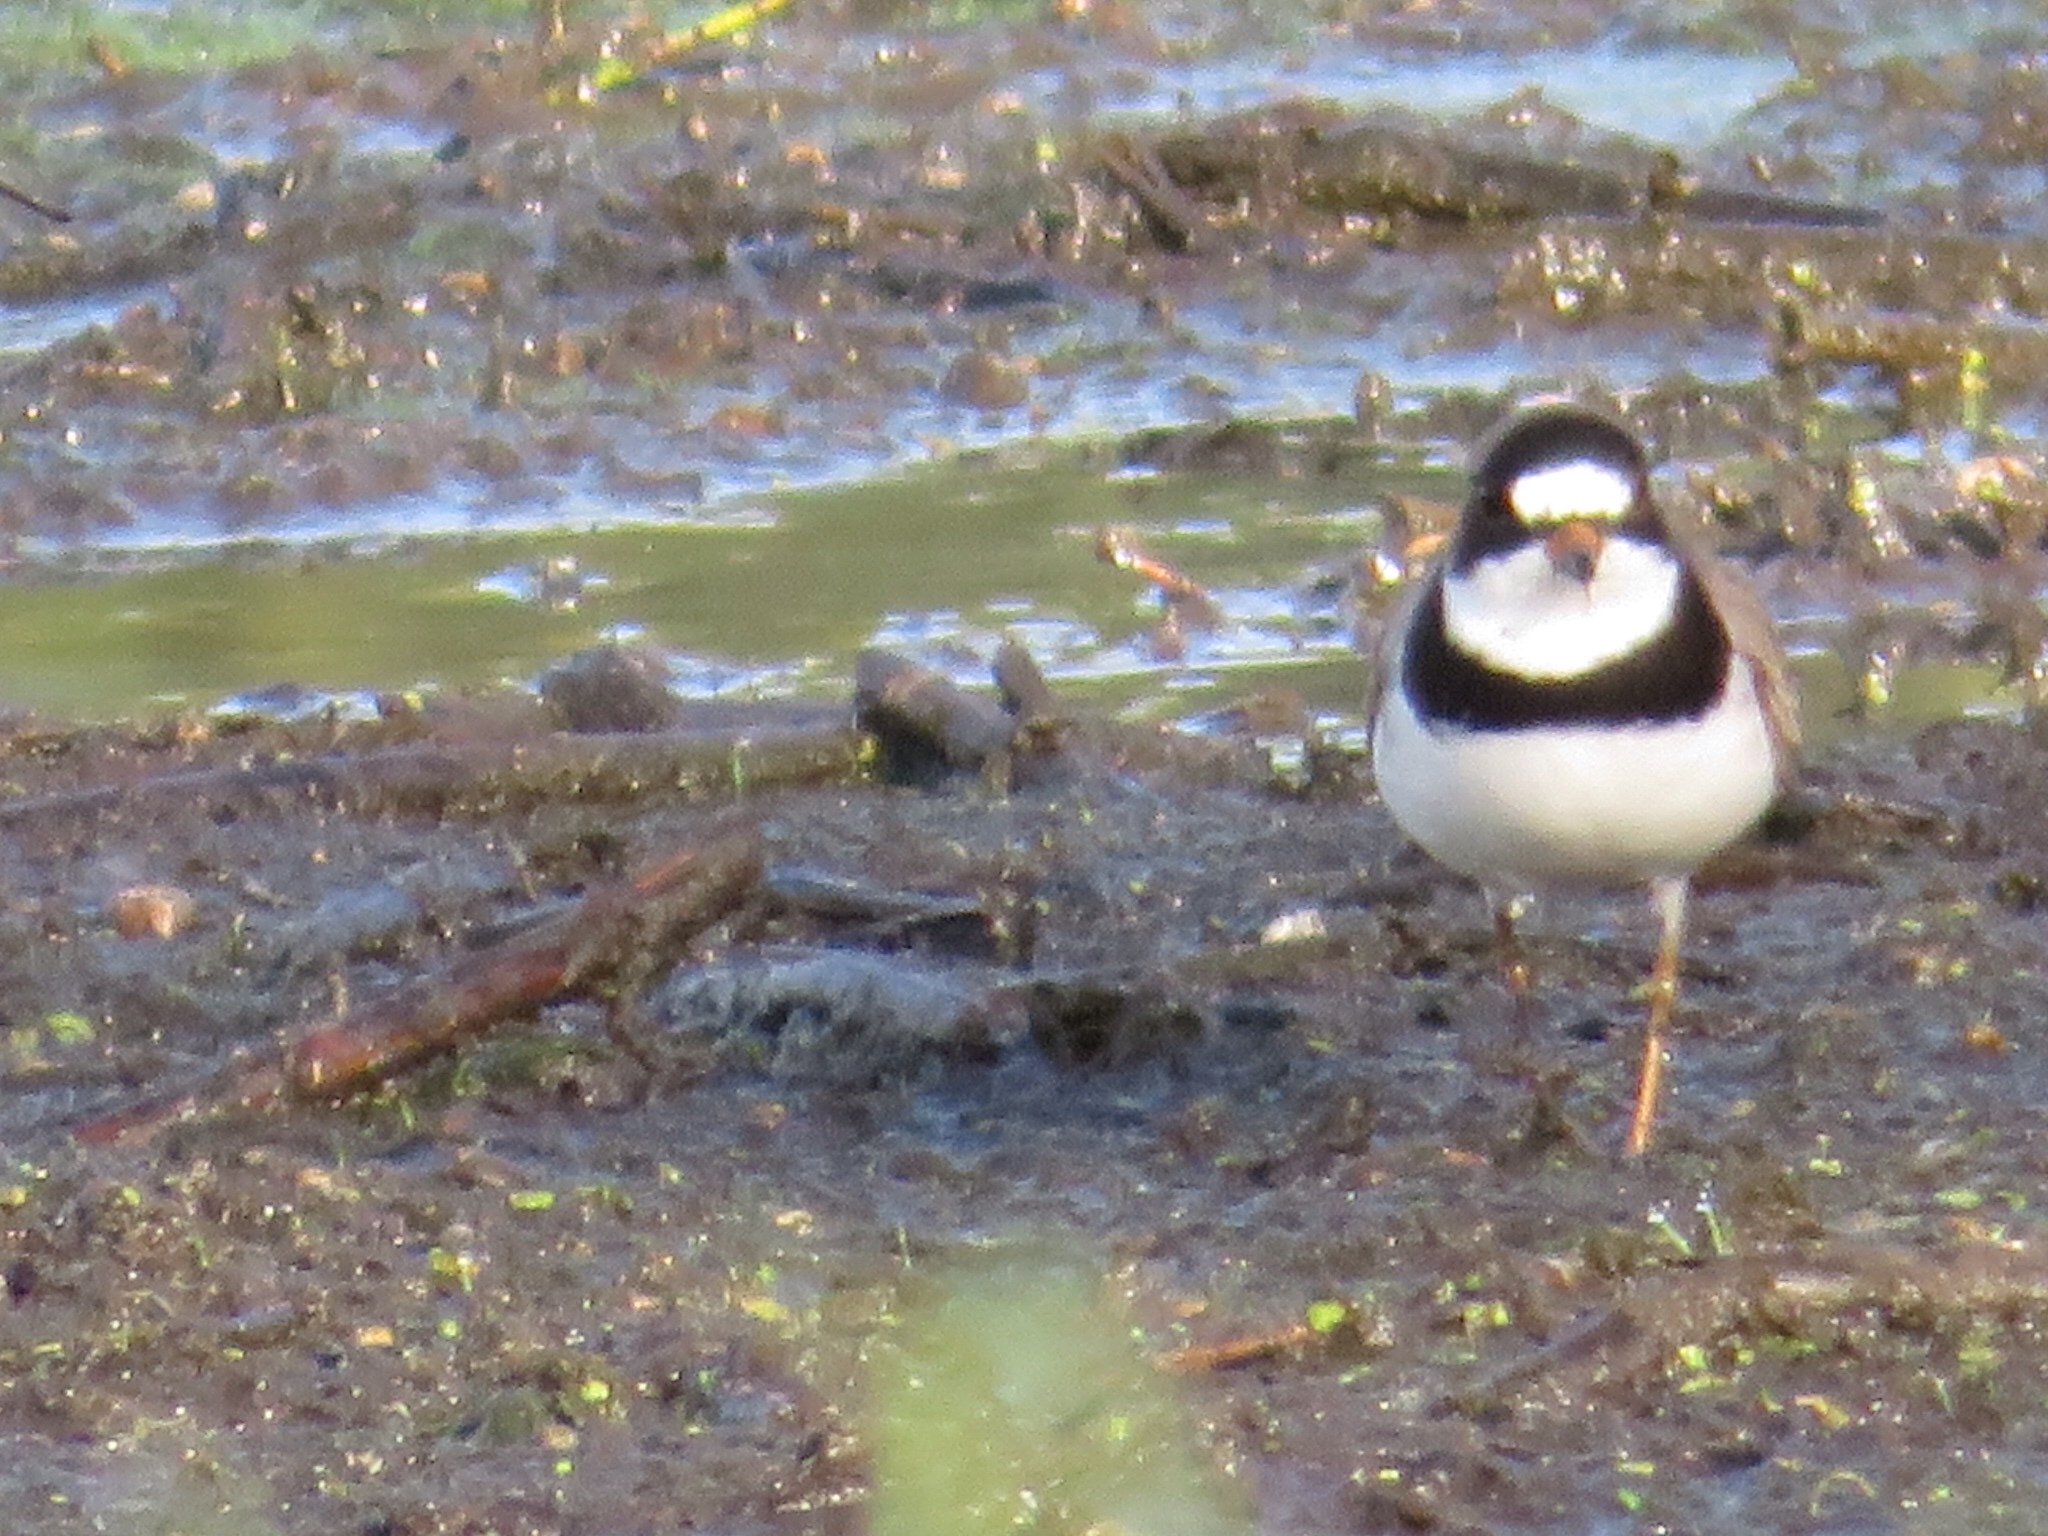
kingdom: Animalia
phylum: Chordata
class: Aves
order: Charadriiformes
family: Charadriidae
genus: Charadrius
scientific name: Charadrius semipalmatus
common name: Semipalmated plover
